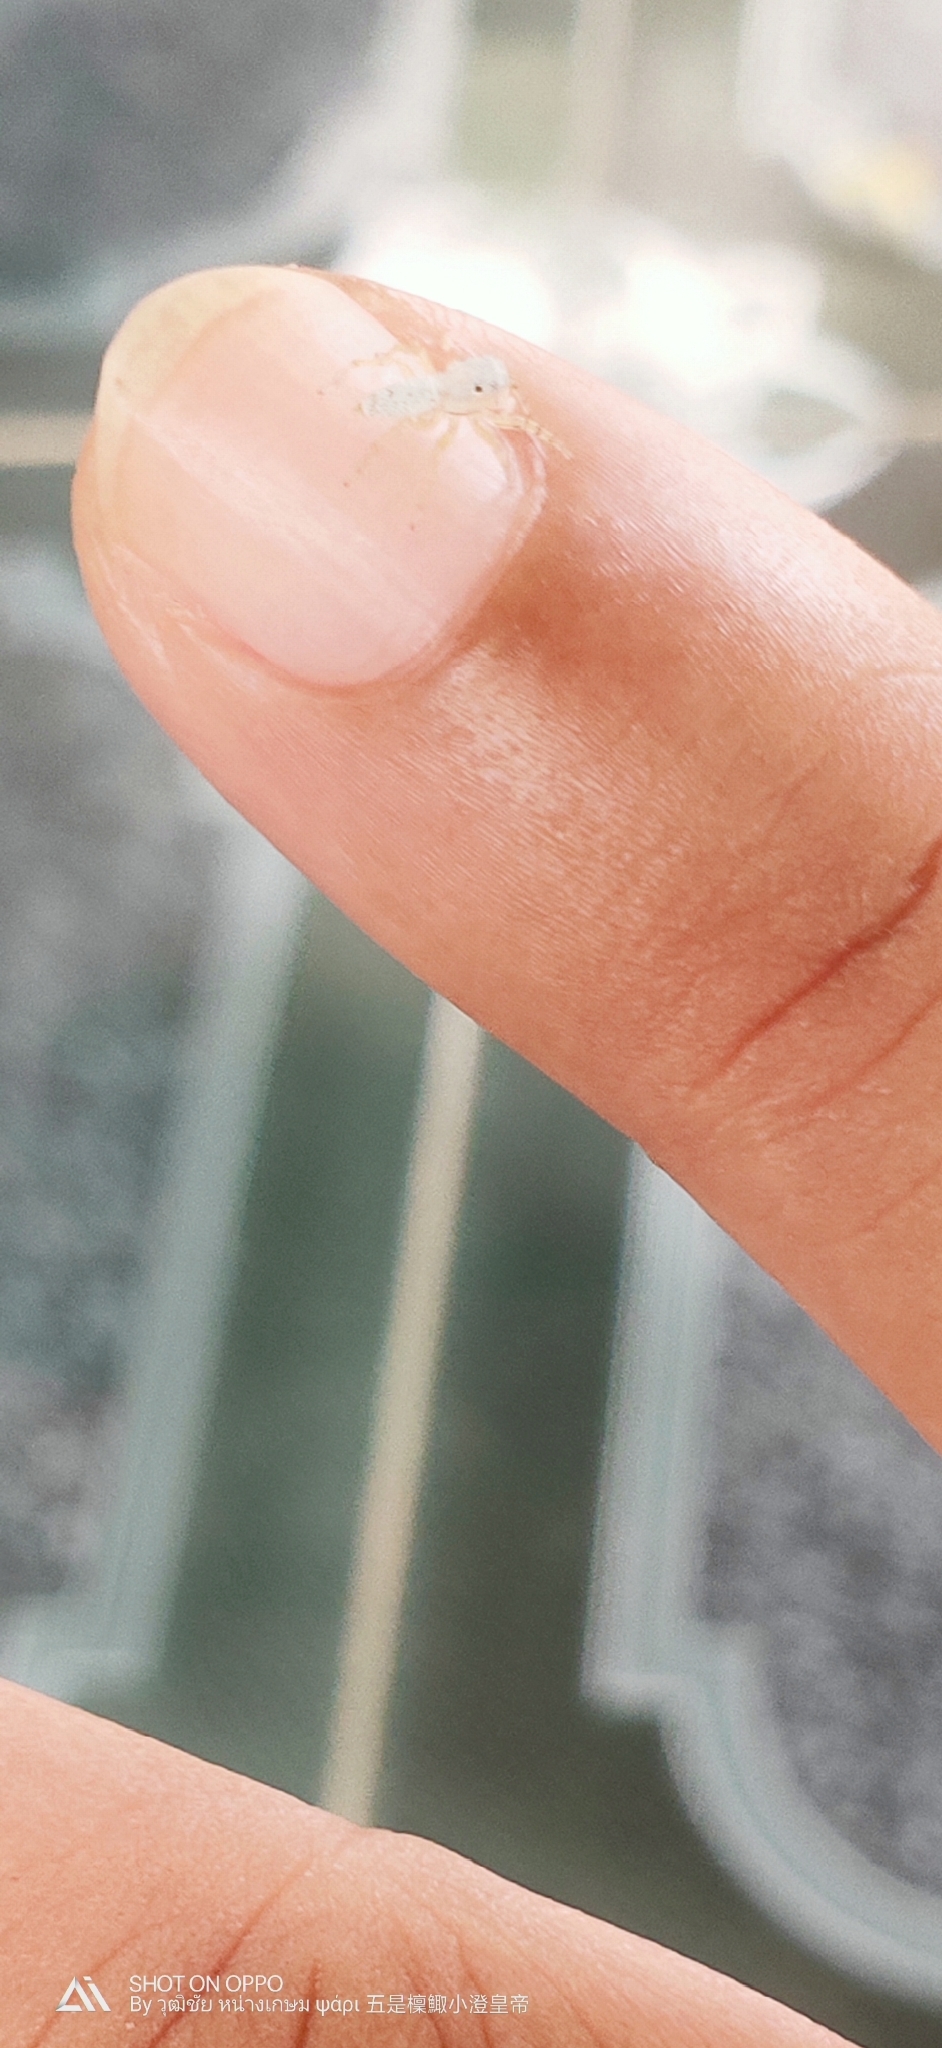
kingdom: Animalia
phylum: Arthropoda
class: Arachnida
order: Araneae
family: Salticidae
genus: Phintelloides
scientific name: Phintelloides versicolor
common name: Jumping spider
